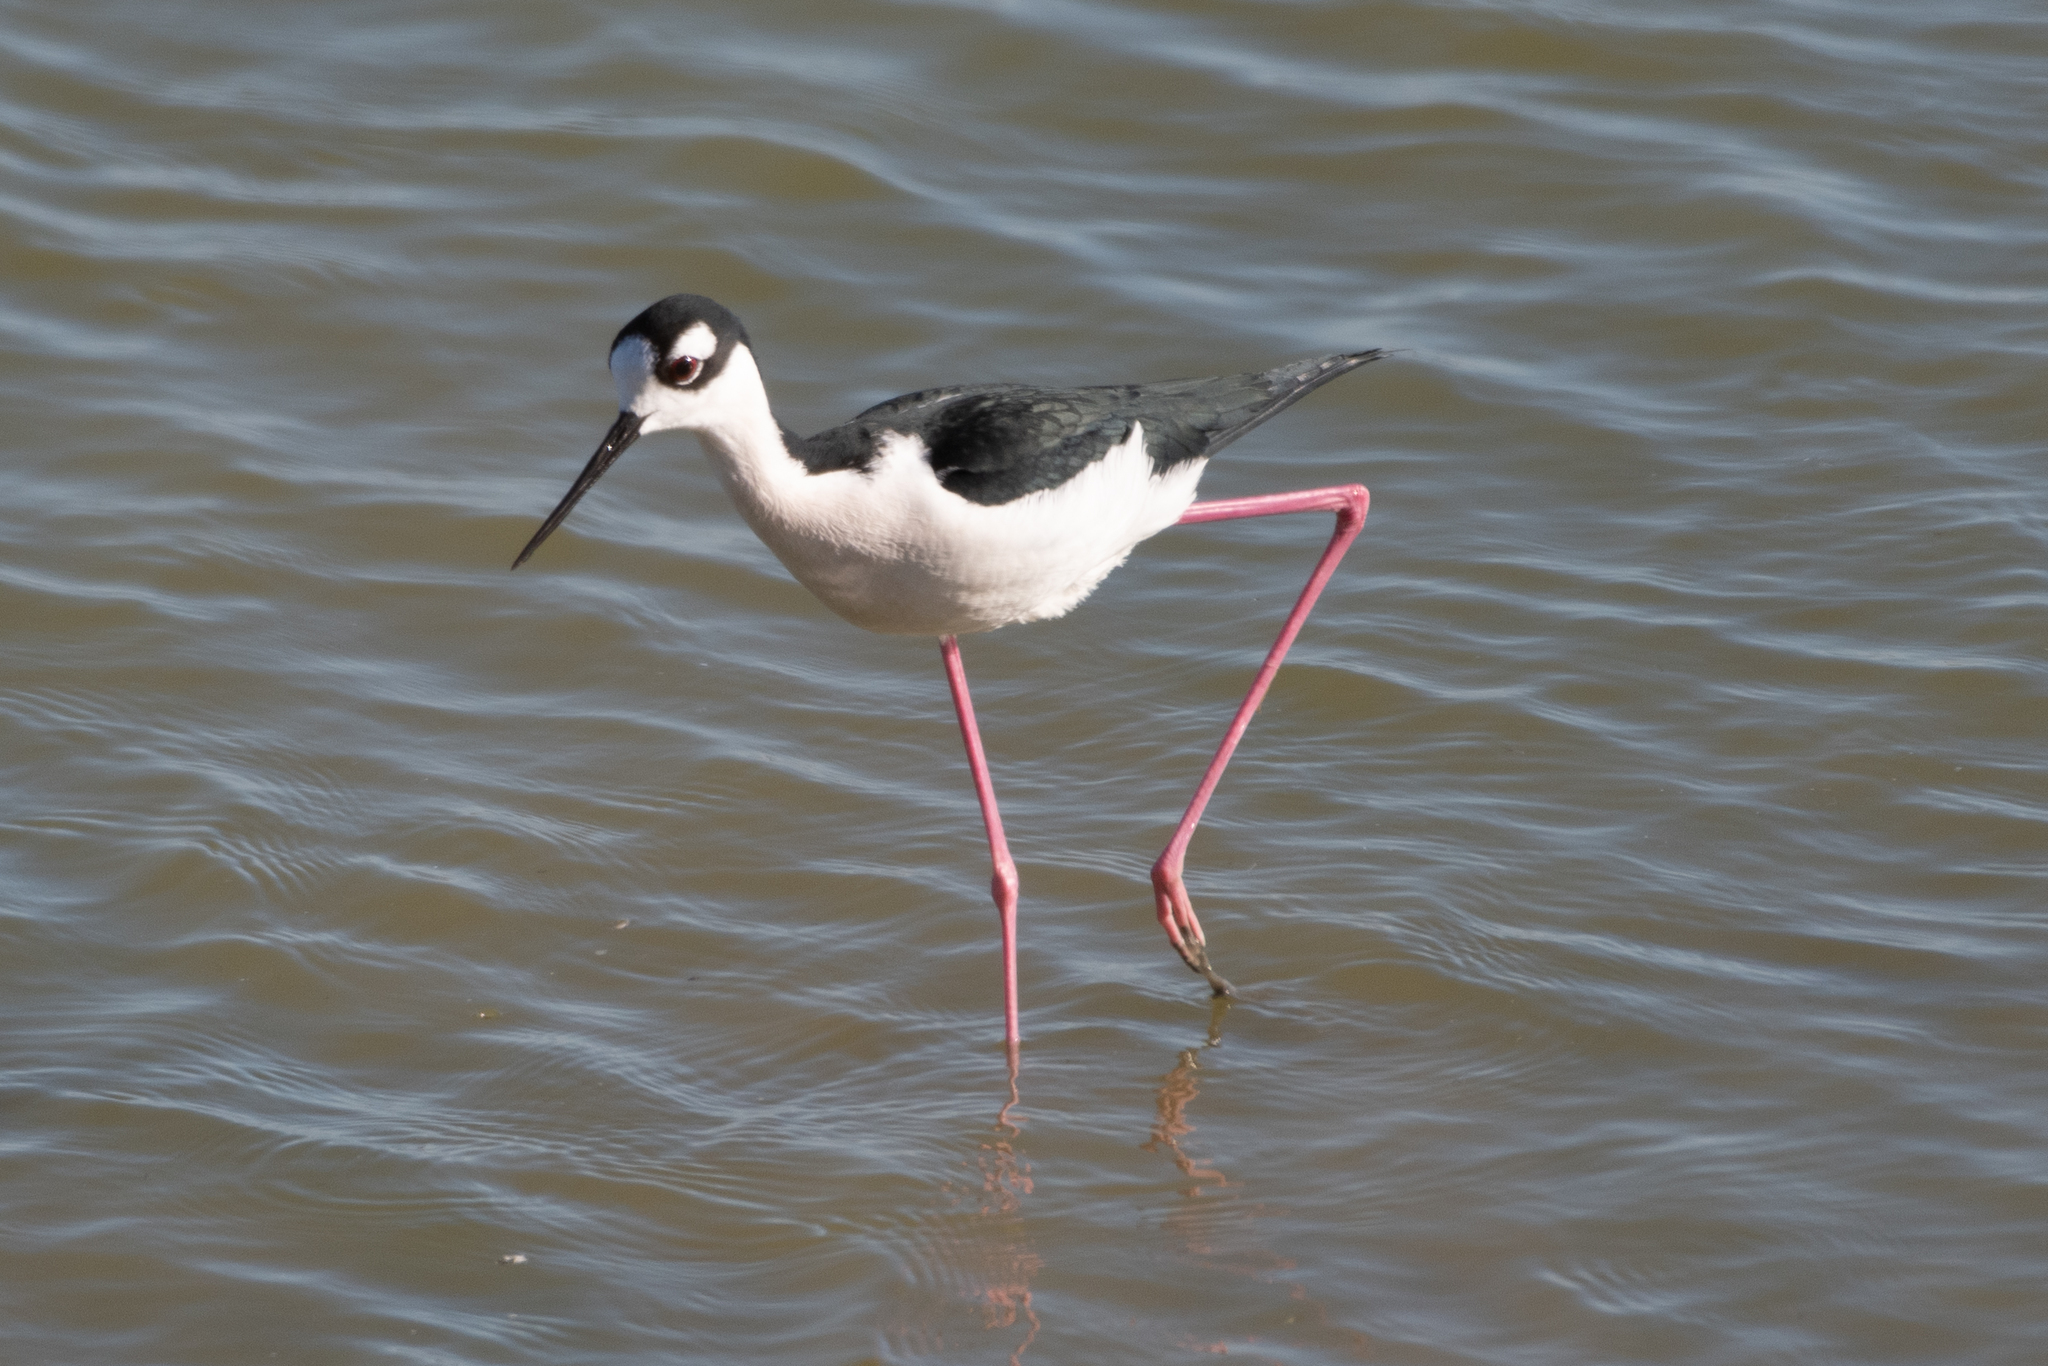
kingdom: Animalia
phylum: Chordata
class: Aves
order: Charadriiformes
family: Recurvirostridae
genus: Himantopus
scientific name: Himantopus mexicanus
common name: Black-necked stilt
